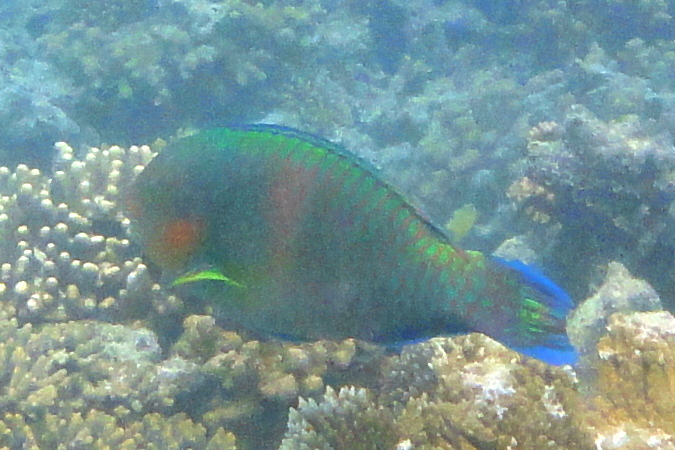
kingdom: Animalia
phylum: Chordata
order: Perciformes
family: Scaridae
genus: Scarus
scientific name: Scarus rivulatus
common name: Surf parrotfish
